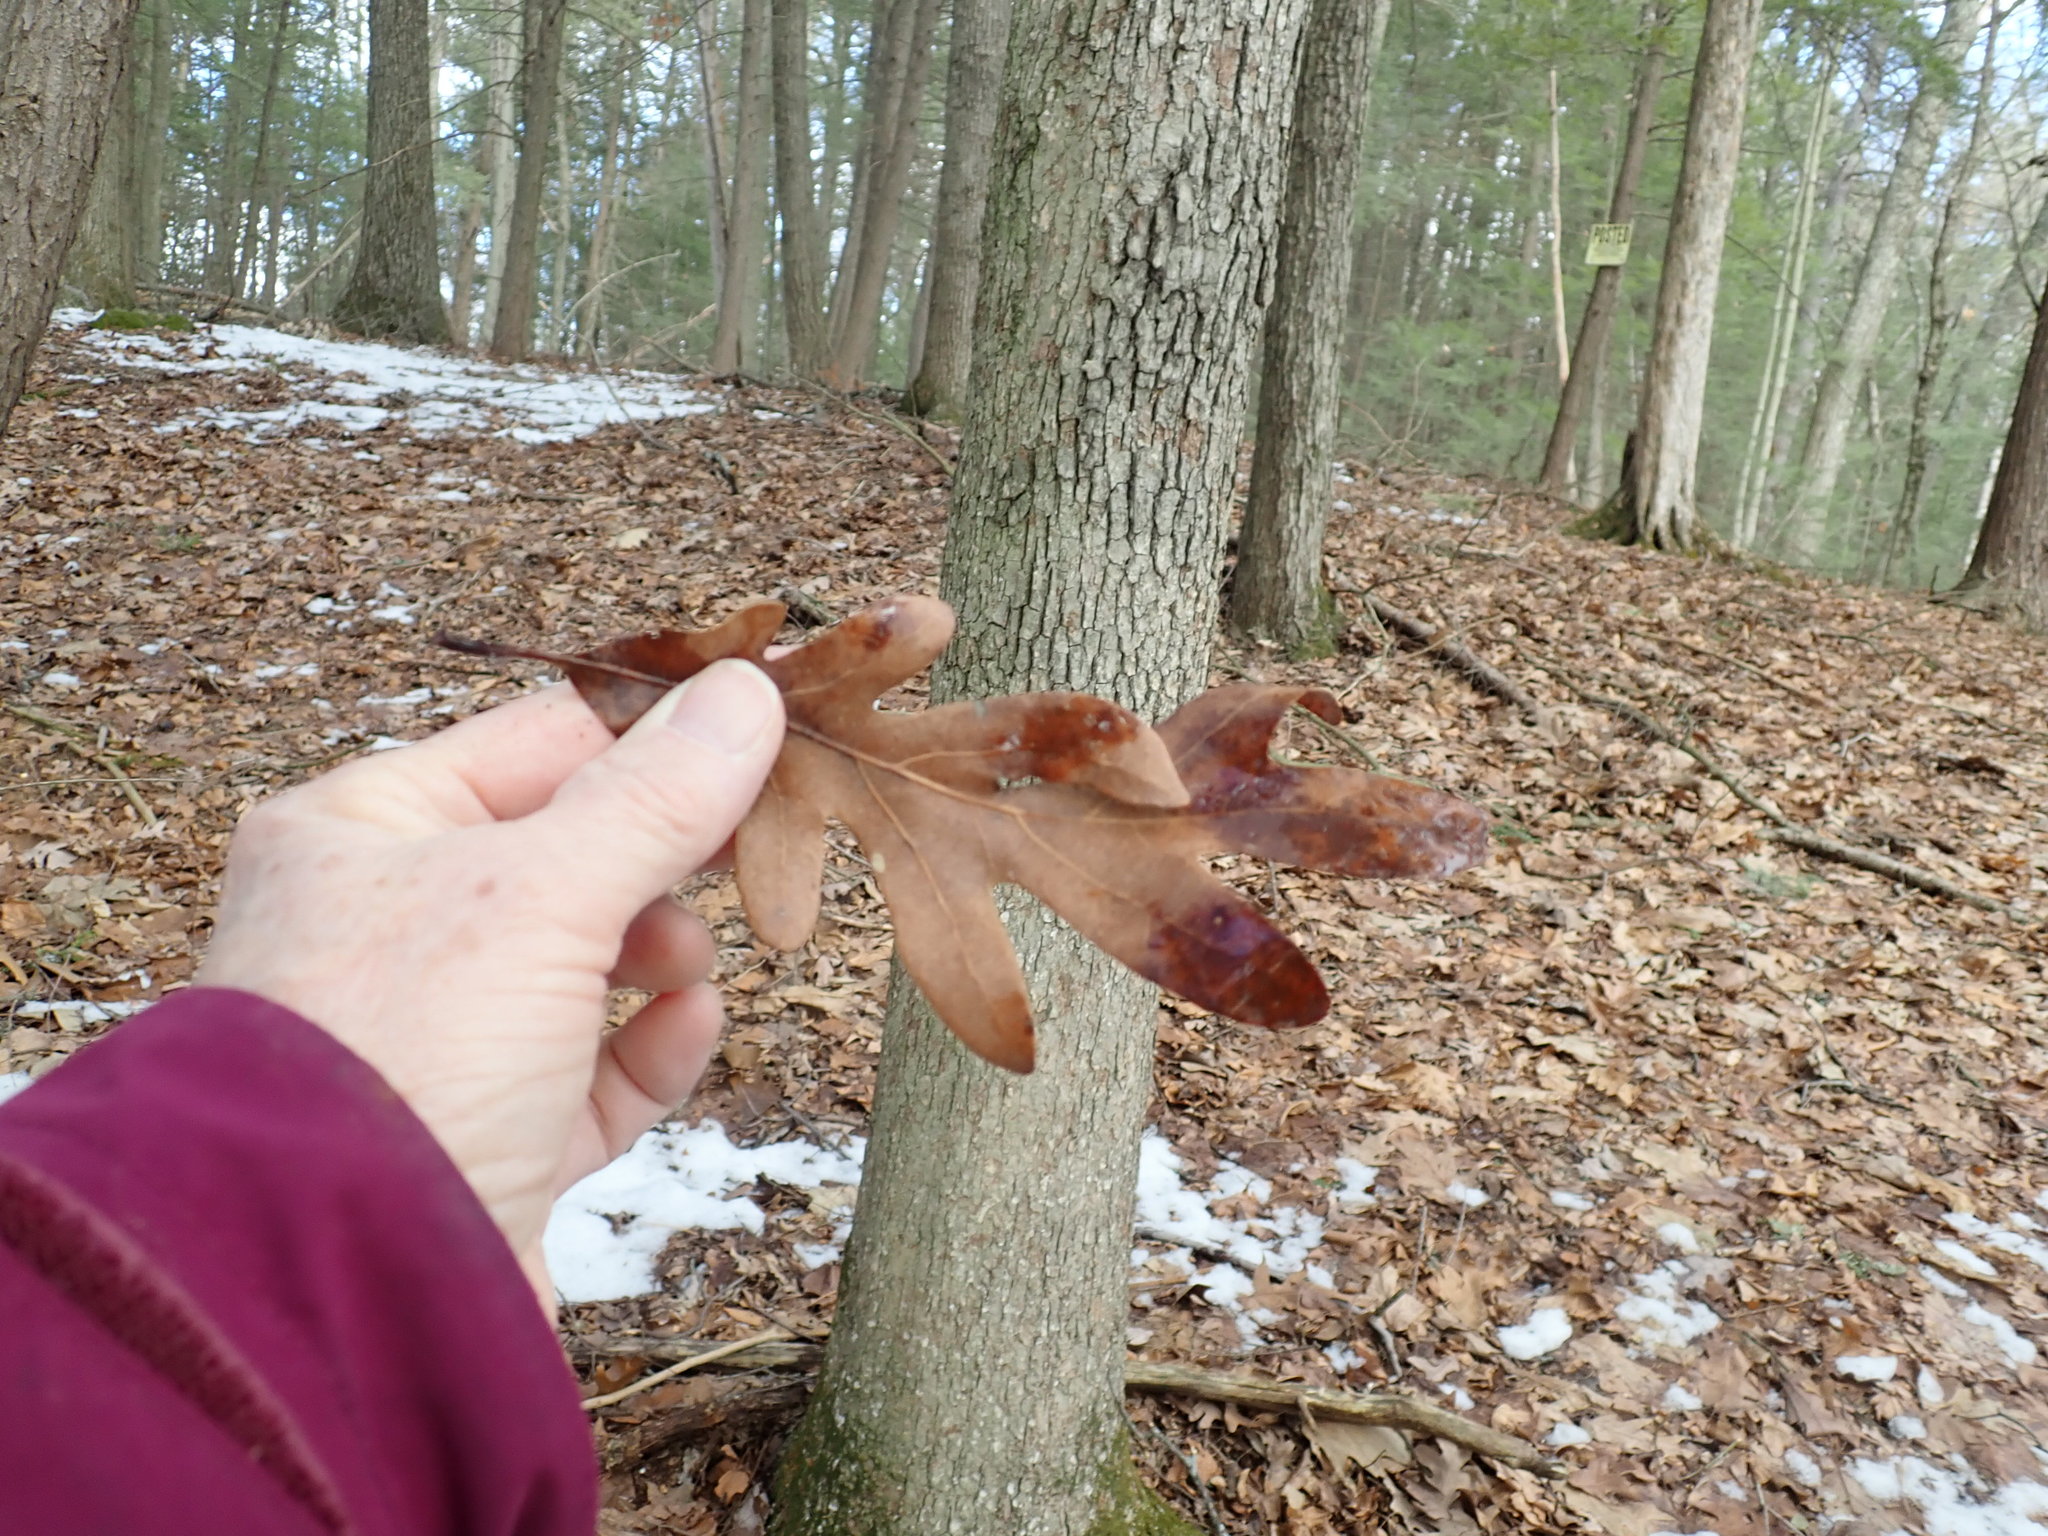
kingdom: Plantae
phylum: Tracheophyta
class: Magnoliopsida
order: Fagales
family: Fagaceae
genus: Quercus
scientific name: Quercus alba
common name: White oak
